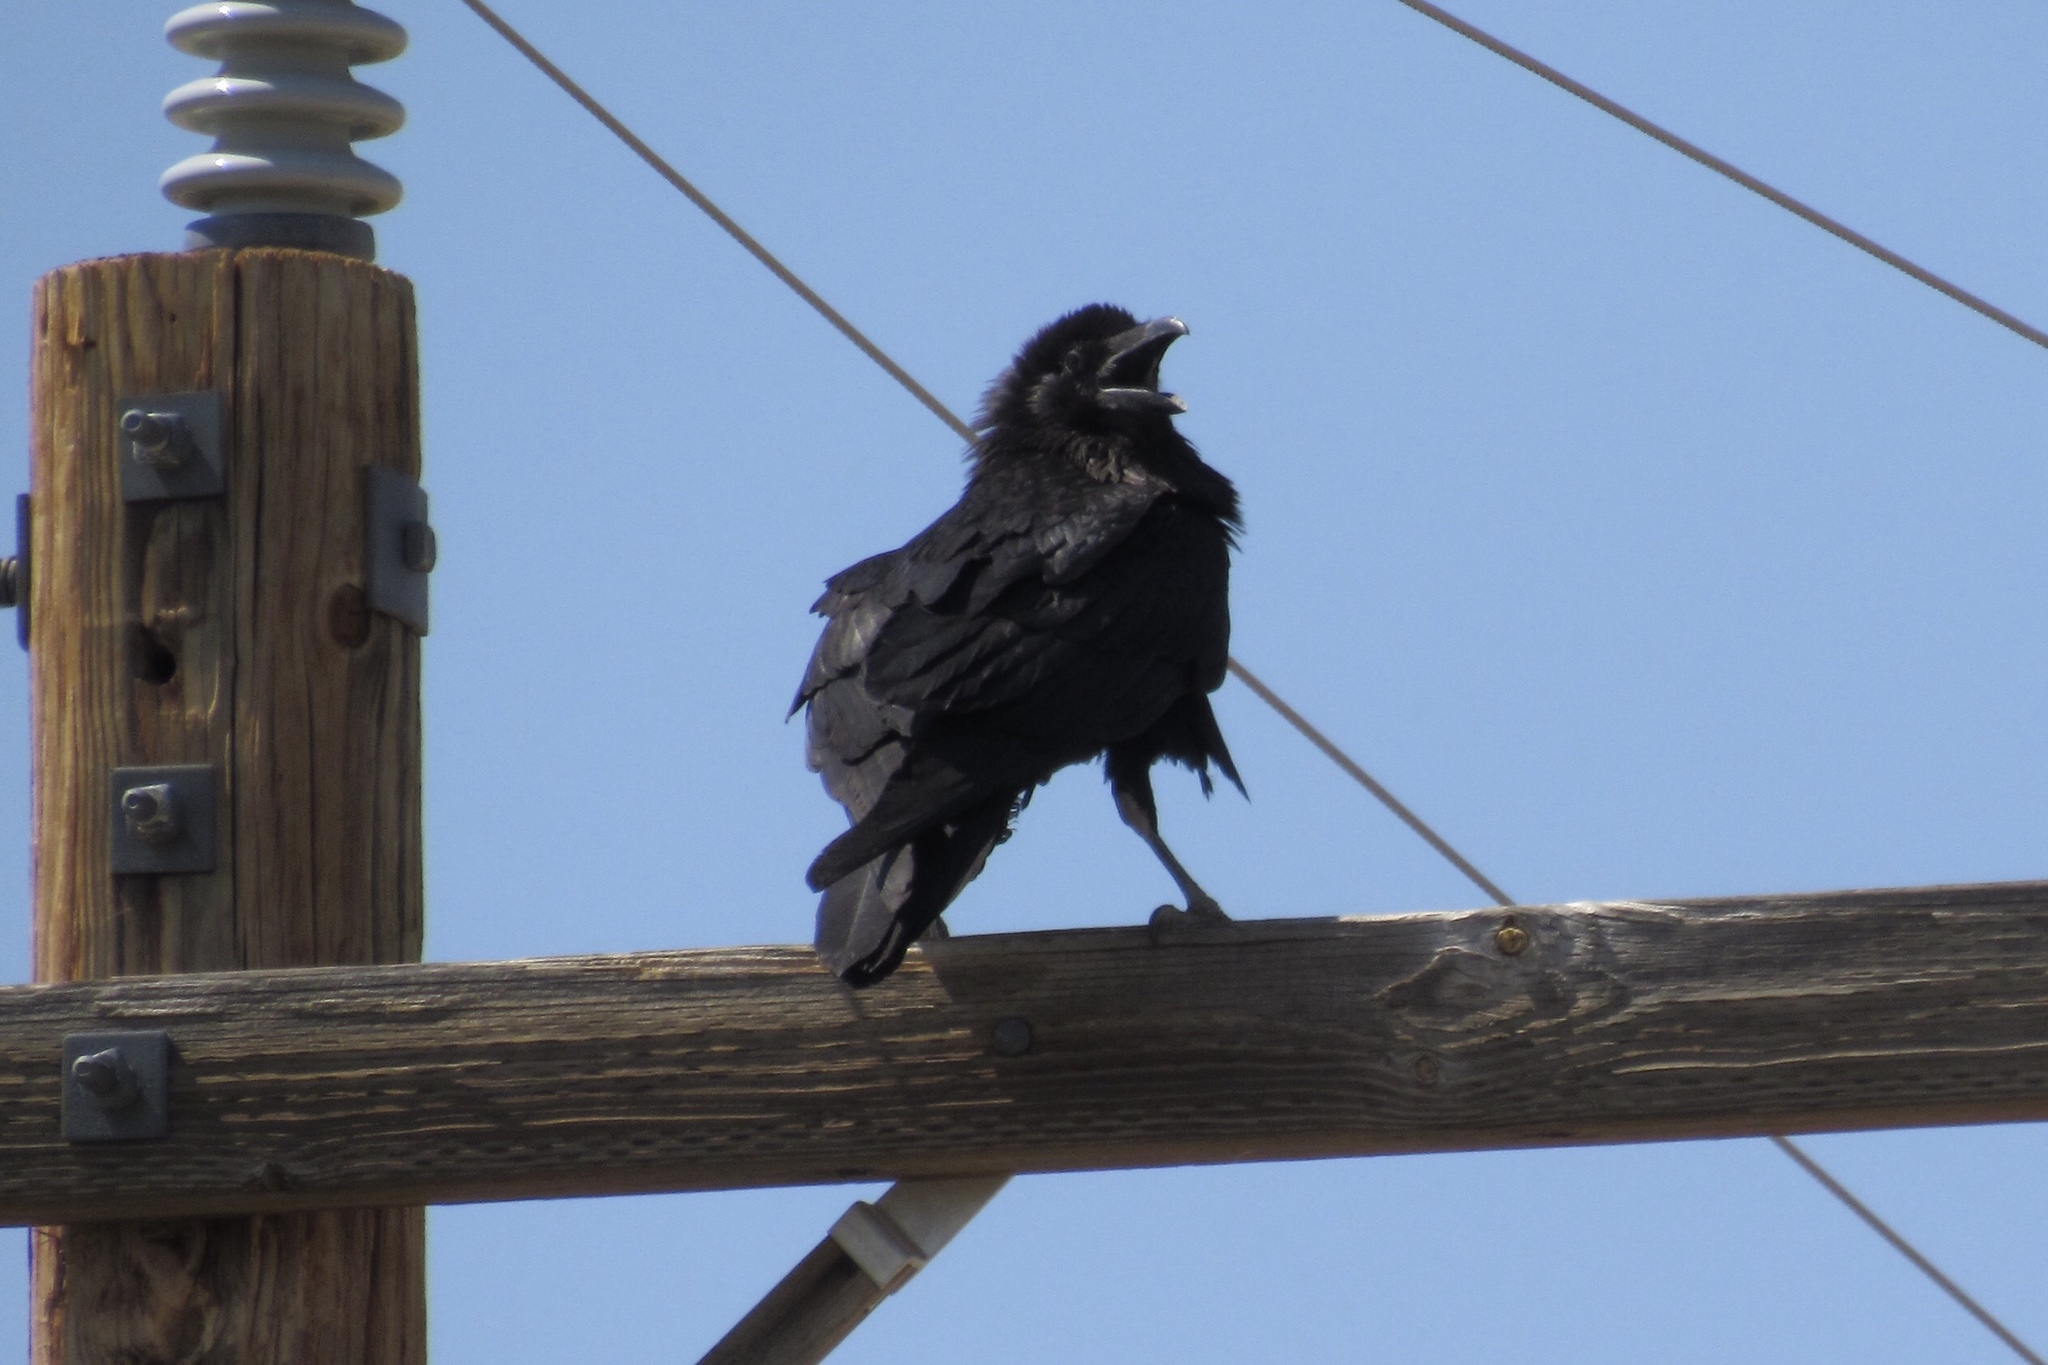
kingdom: Animalia
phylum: Chordata
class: Aves
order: Passeriformes
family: Corvidae
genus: Corvus
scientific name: Corvus corax
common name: Common raven
